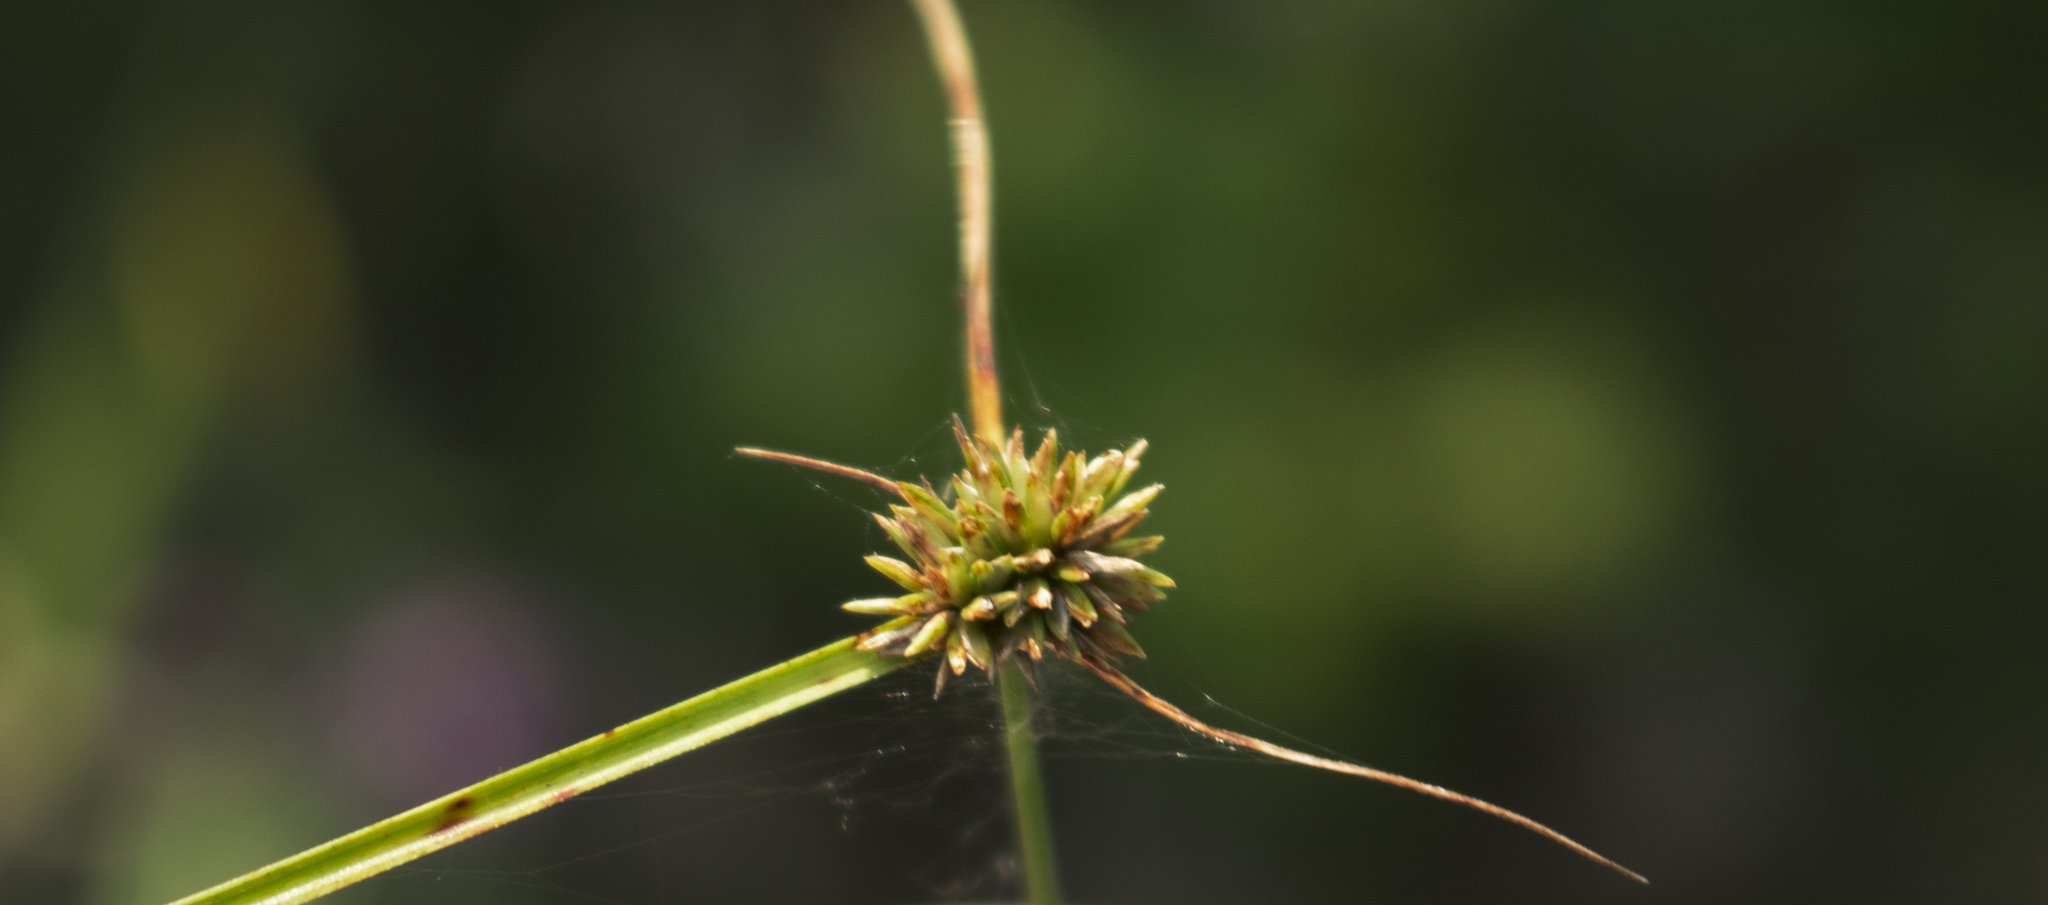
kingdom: Plantae
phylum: Tracheophyta
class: Liliopsida
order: Poales
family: Cyperaceae
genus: Cyperus
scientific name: Cyperus lupulinus
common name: Great plains flatsedge
